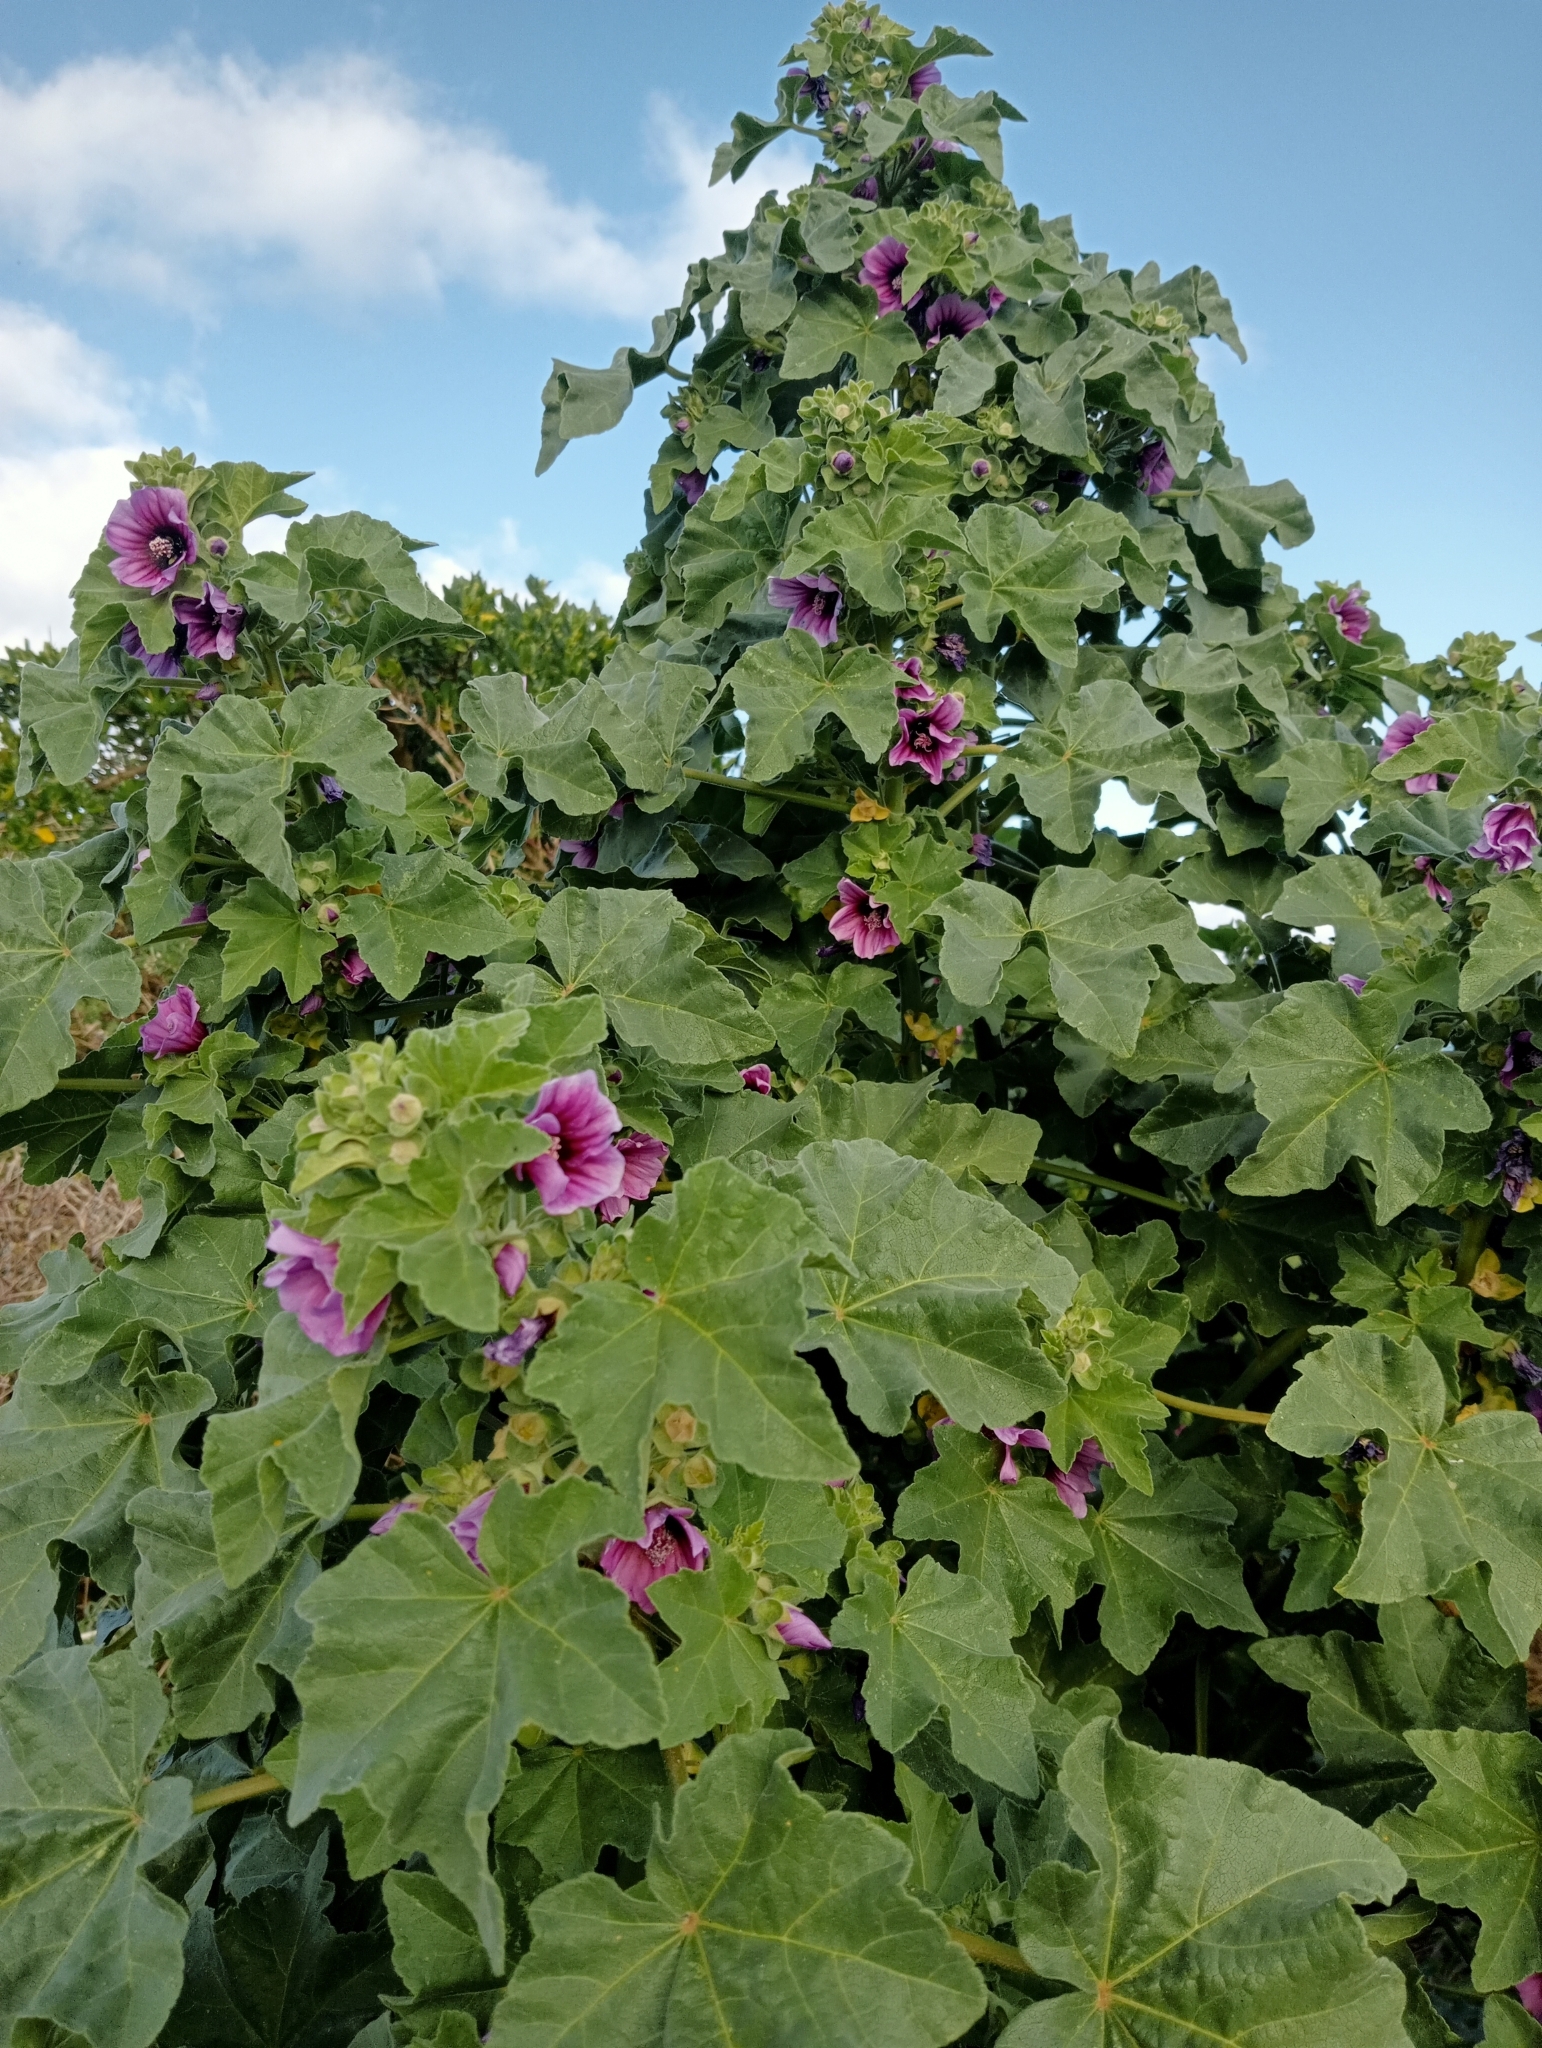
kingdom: Plantae
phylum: Tracheophyta
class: Magnoliopsida
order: Malvales
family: Malvaceae
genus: Malva
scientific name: Malva arborea
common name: Tree mallow
